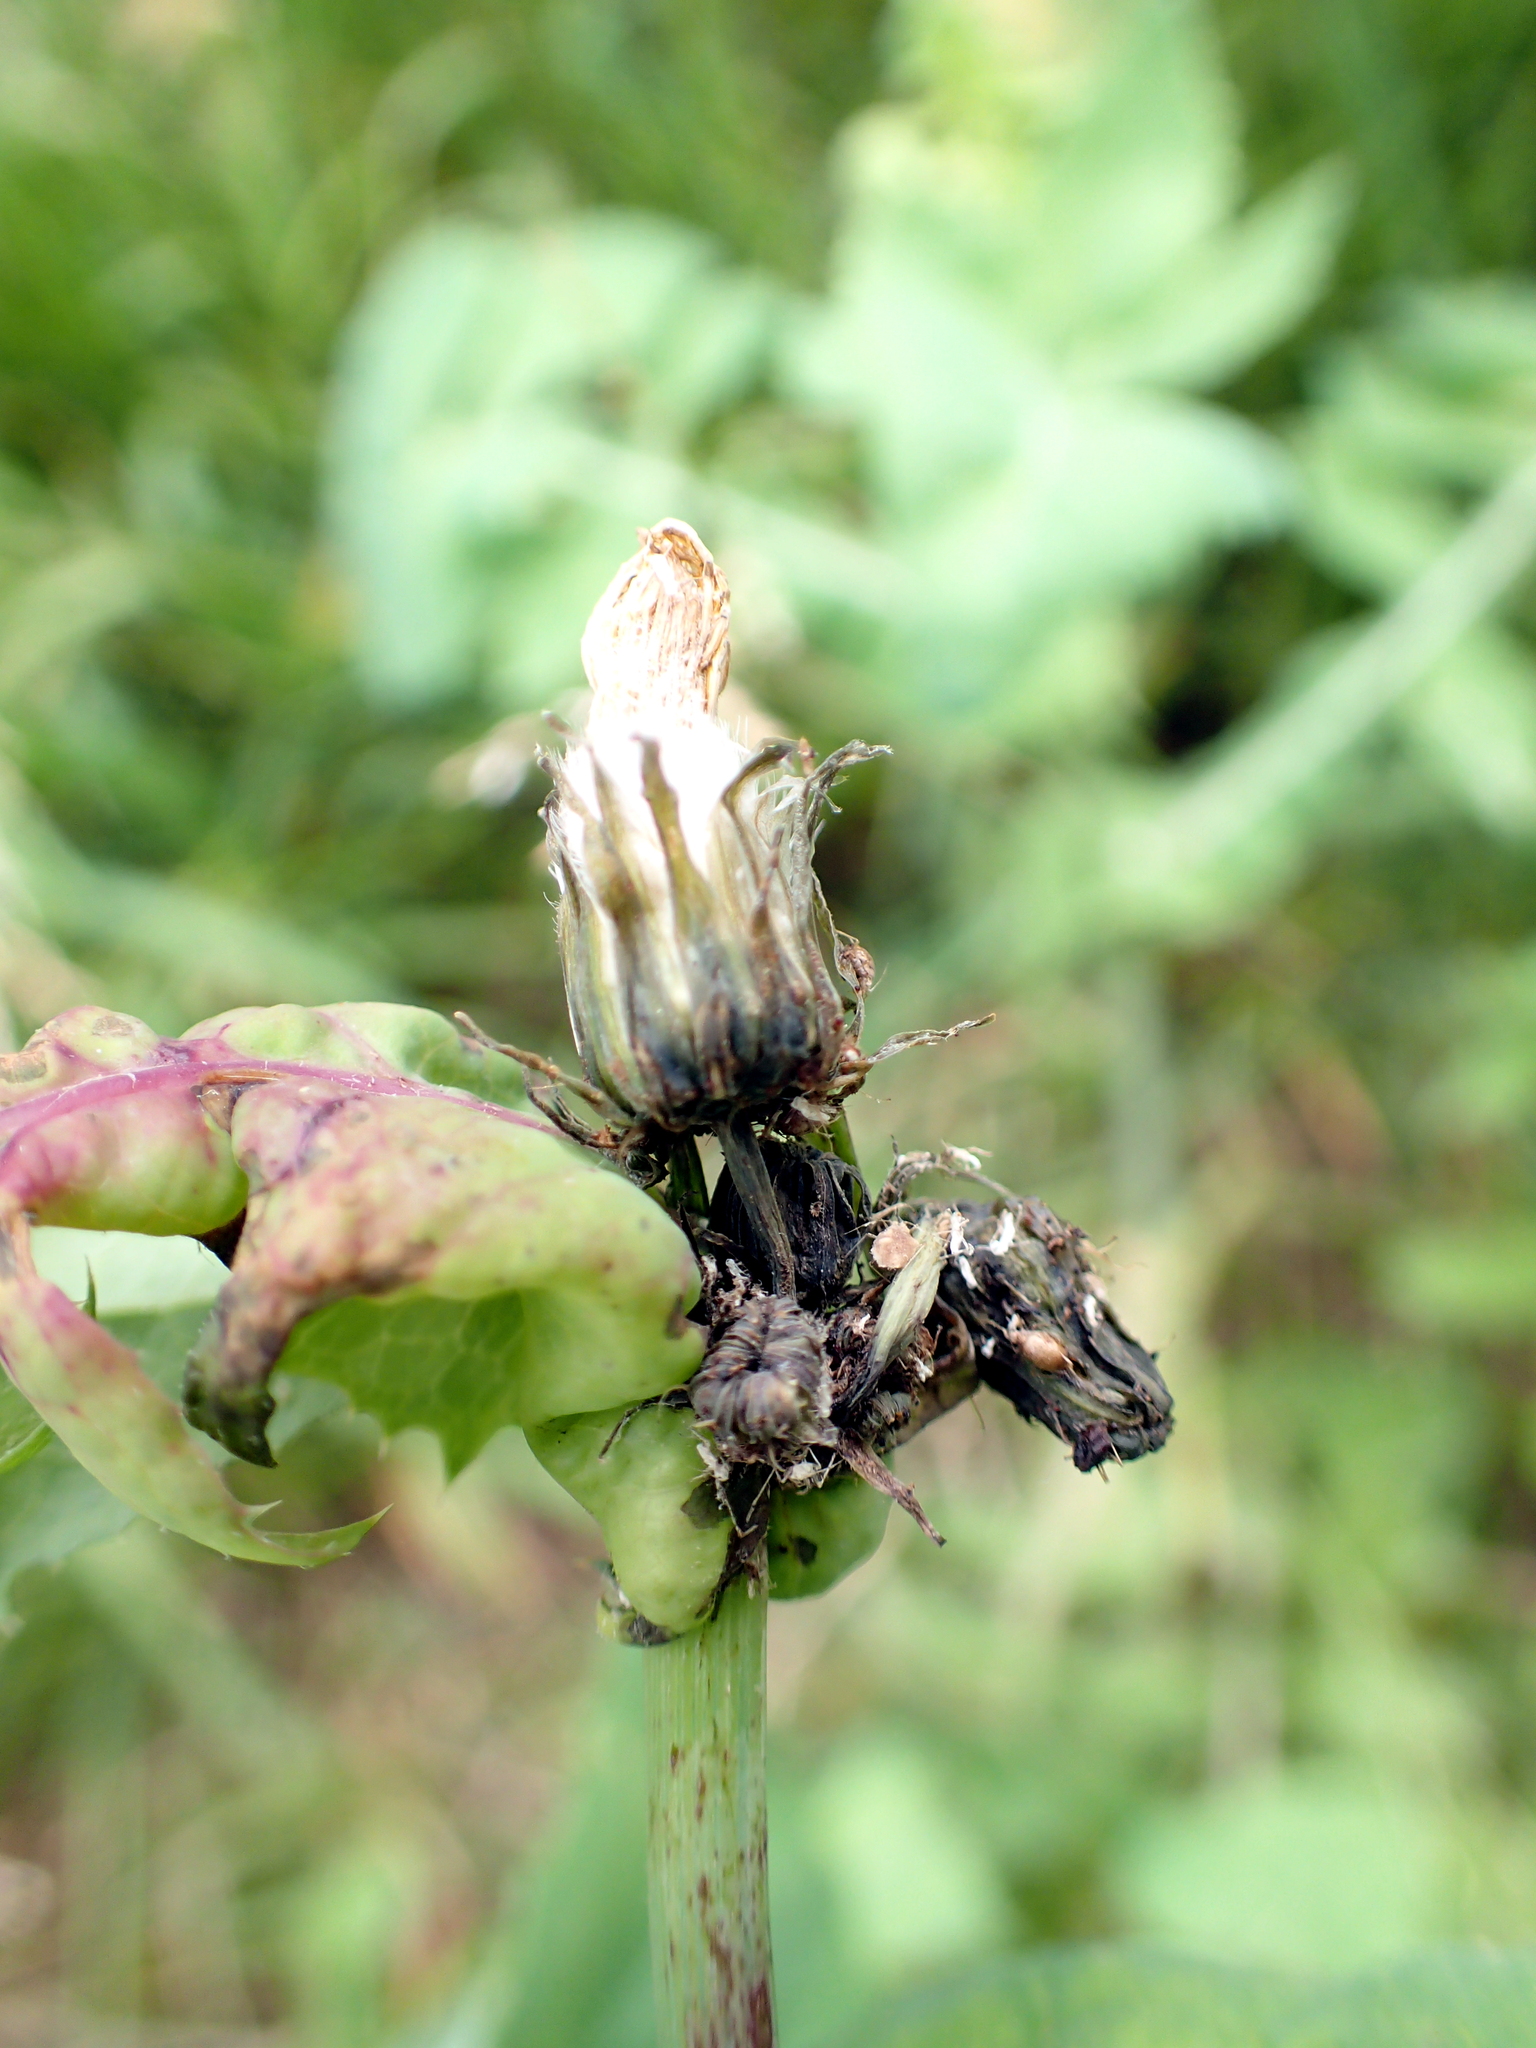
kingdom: Plantae
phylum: Tracheophyta
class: Magnoliopsida
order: Asterales
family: Asteraceae
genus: Sonchus
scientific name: Sonchus oleraceus
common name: Common sowthistle
